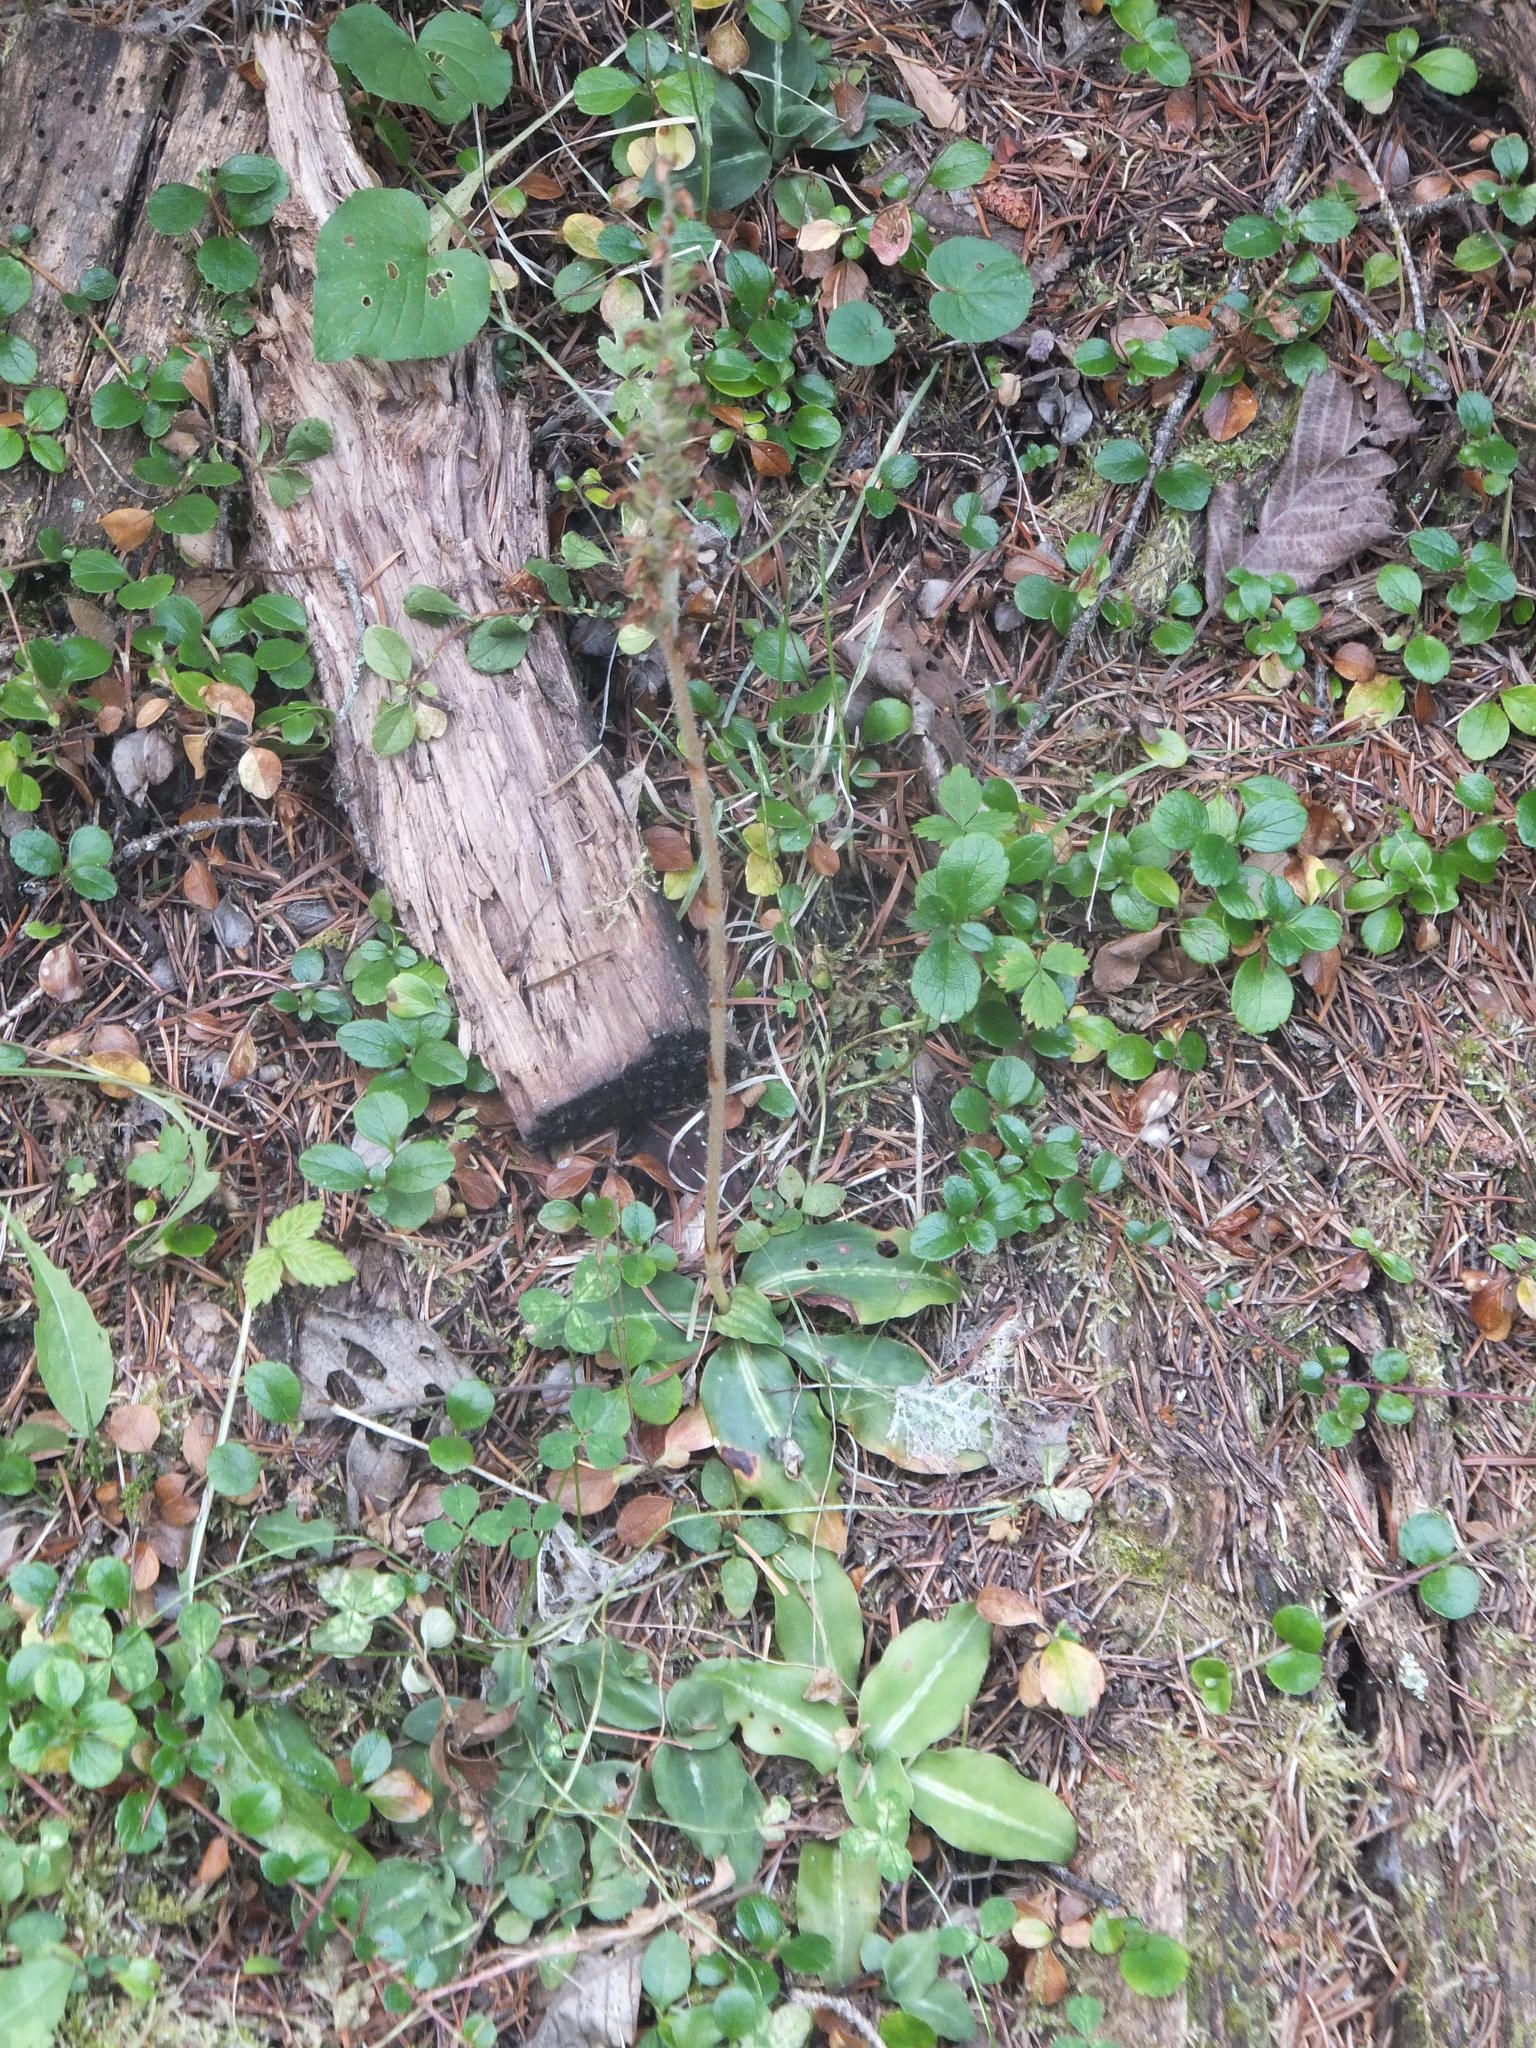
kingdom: Plantae
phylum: Tracheophyta
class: Liliopsida
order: Asparagales
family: Orchidaceae
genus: Goodyera
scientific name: Goodyera oblongifolia
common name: Giant rattlesnake-plantain
